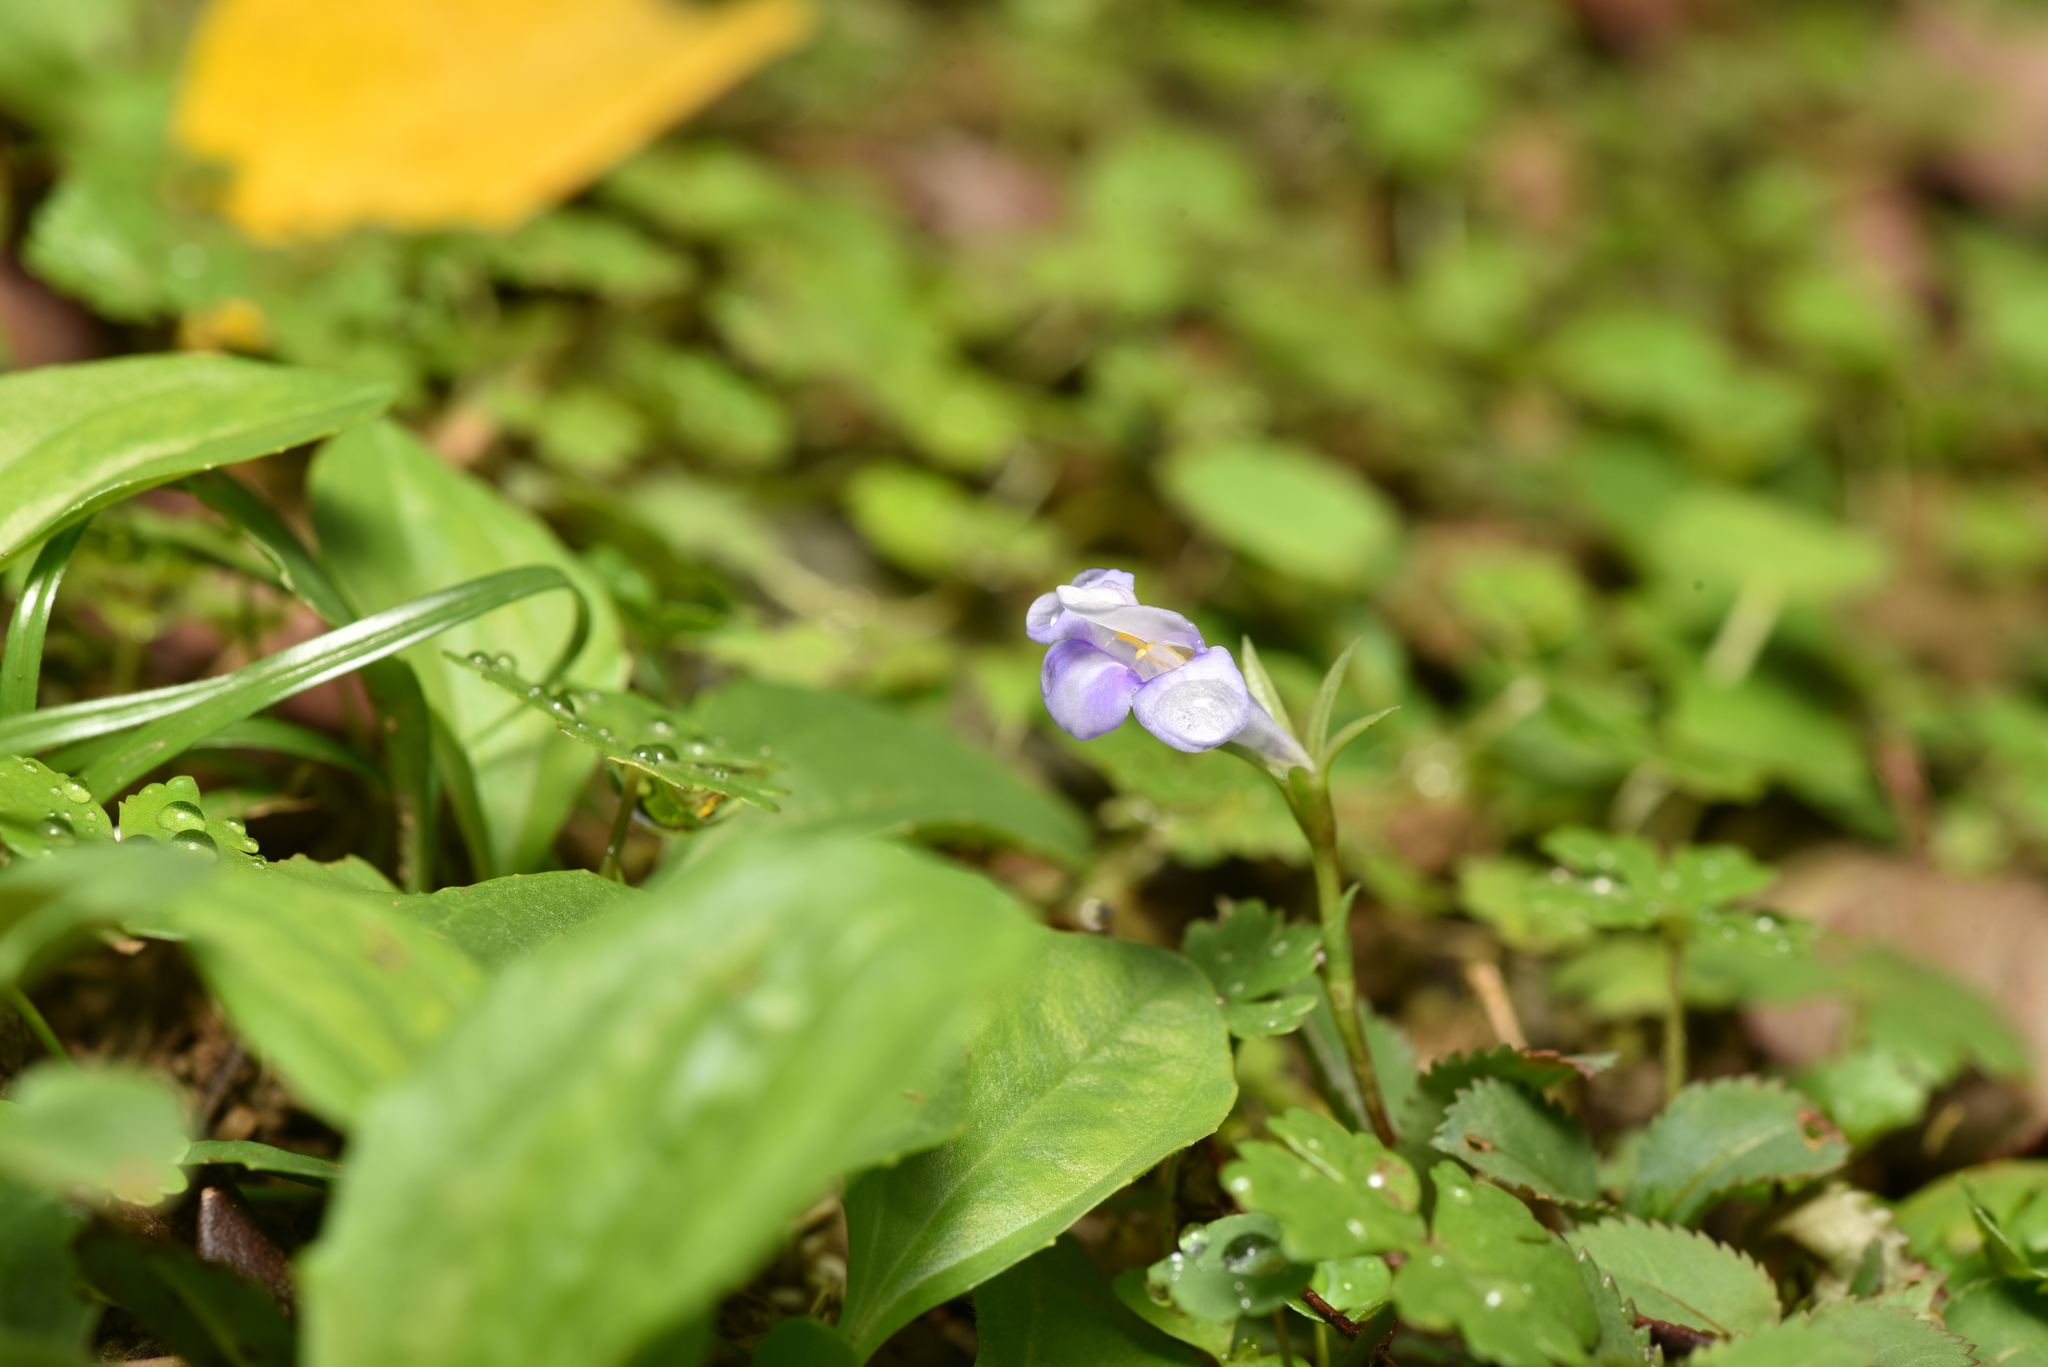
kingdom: Plantae
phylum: Tracheophyta
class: Magnoliopsida
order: Lamiales
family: Linderniaceae
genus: Bonnaya
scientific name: Bonnaya ruelloides
